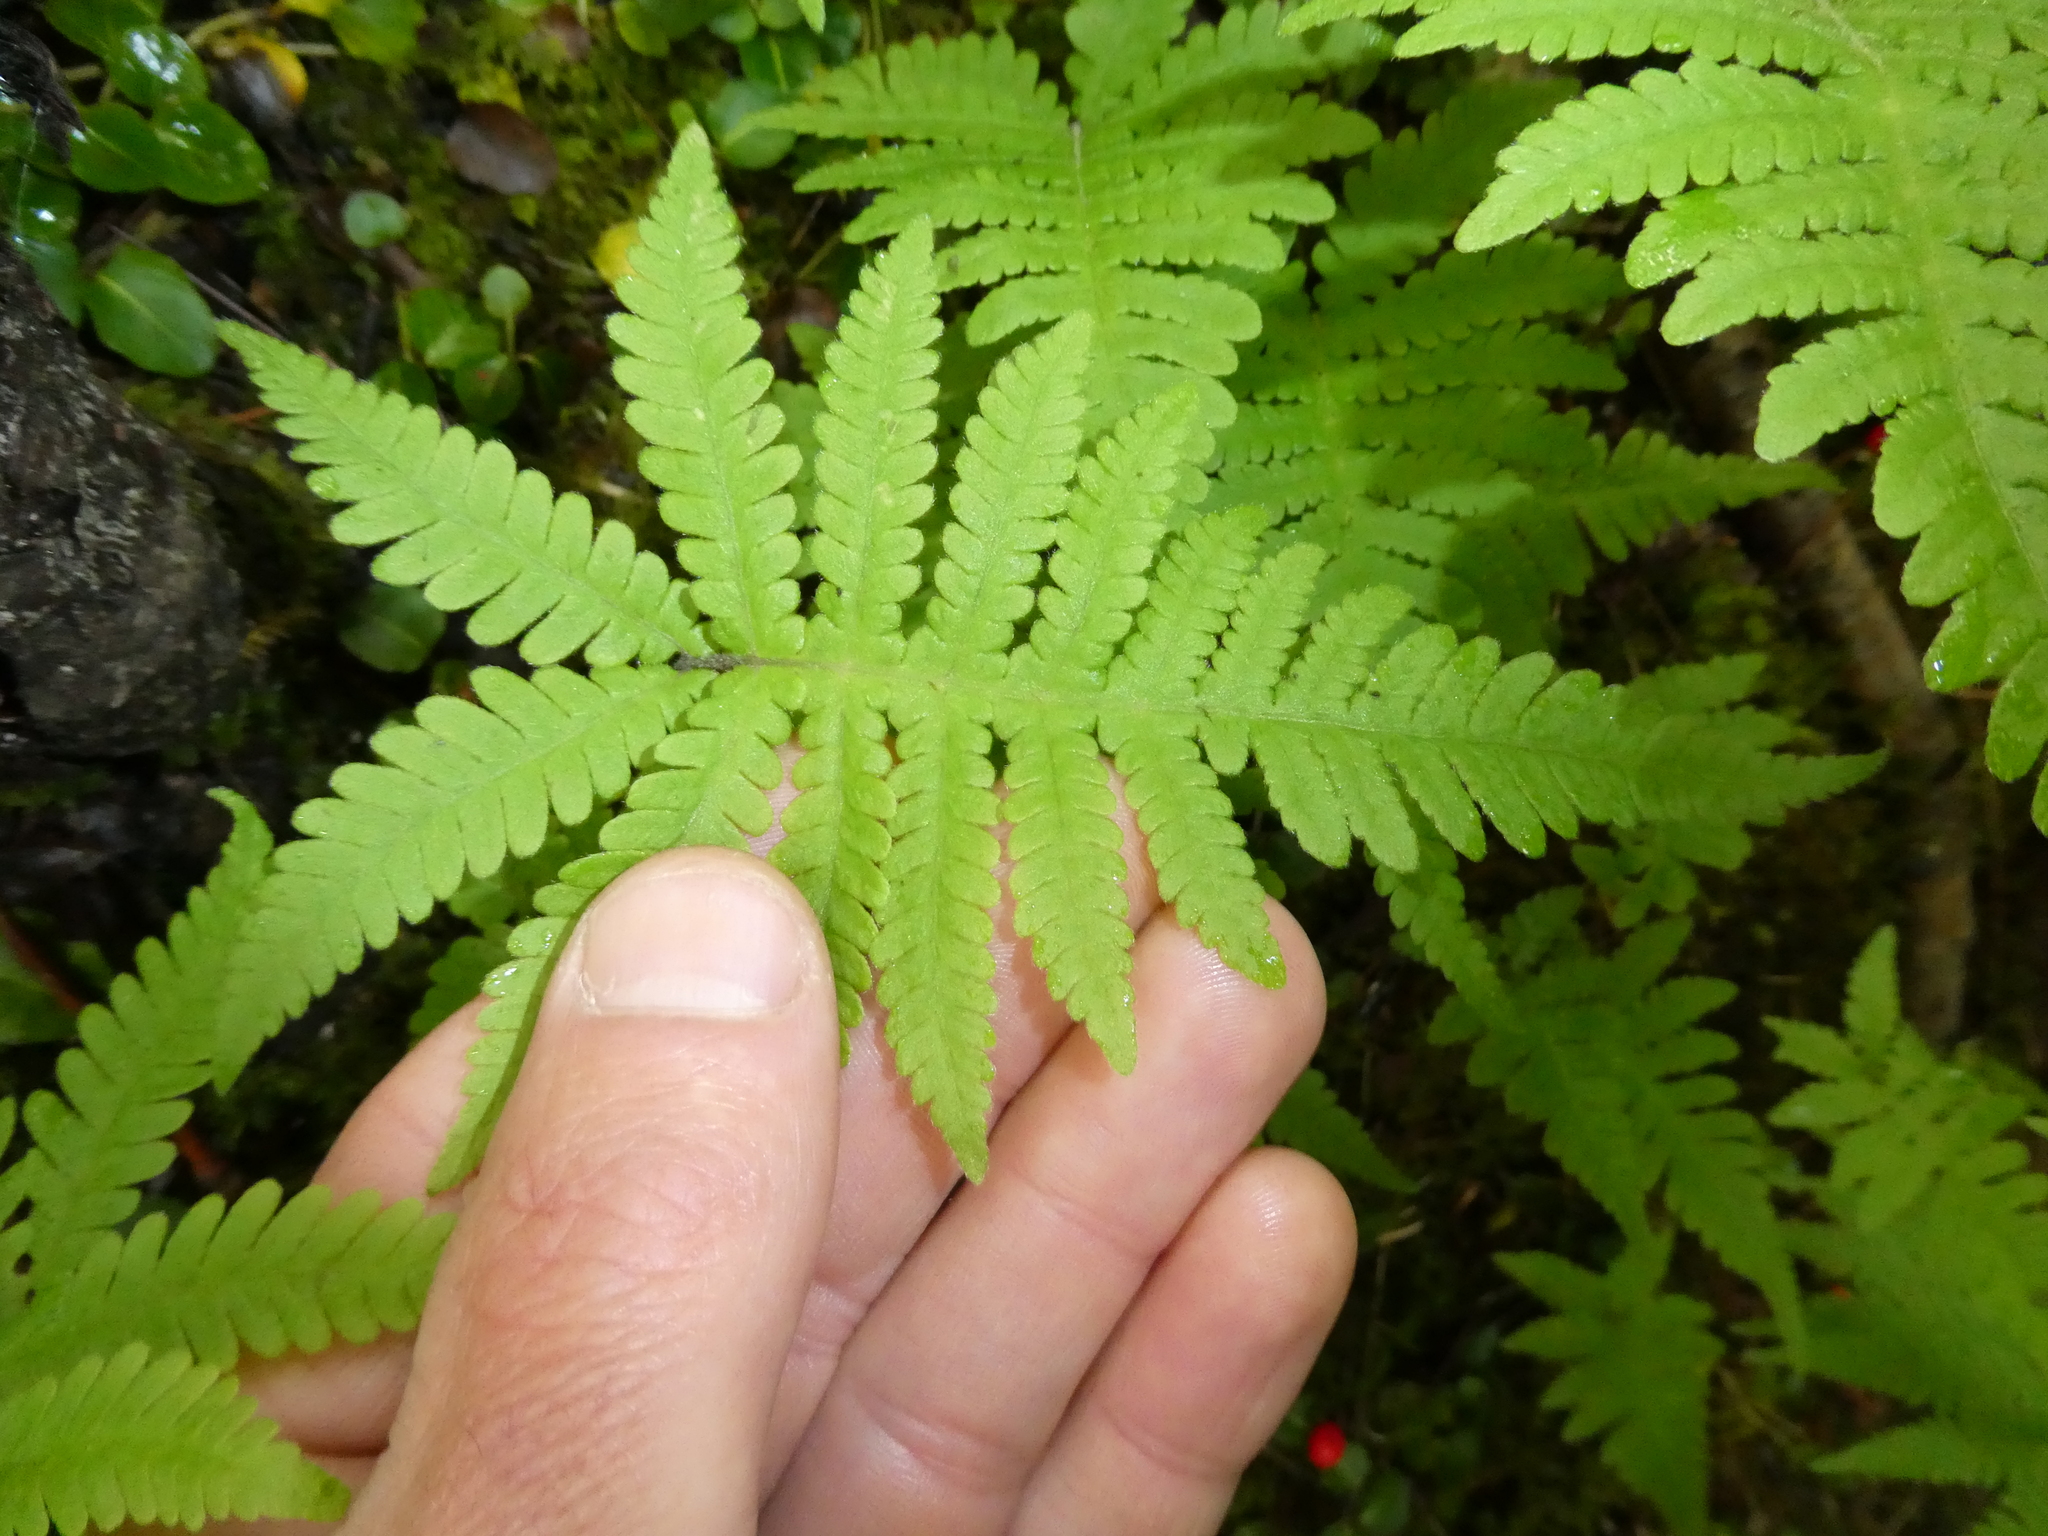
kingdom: Plantae
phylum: Tracheophyta
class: Polypodiopsida
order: Polypodiales
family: Thelypteridaceae
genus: Phegopteris
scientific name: Phegopteris connectilis
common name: Beech fern
